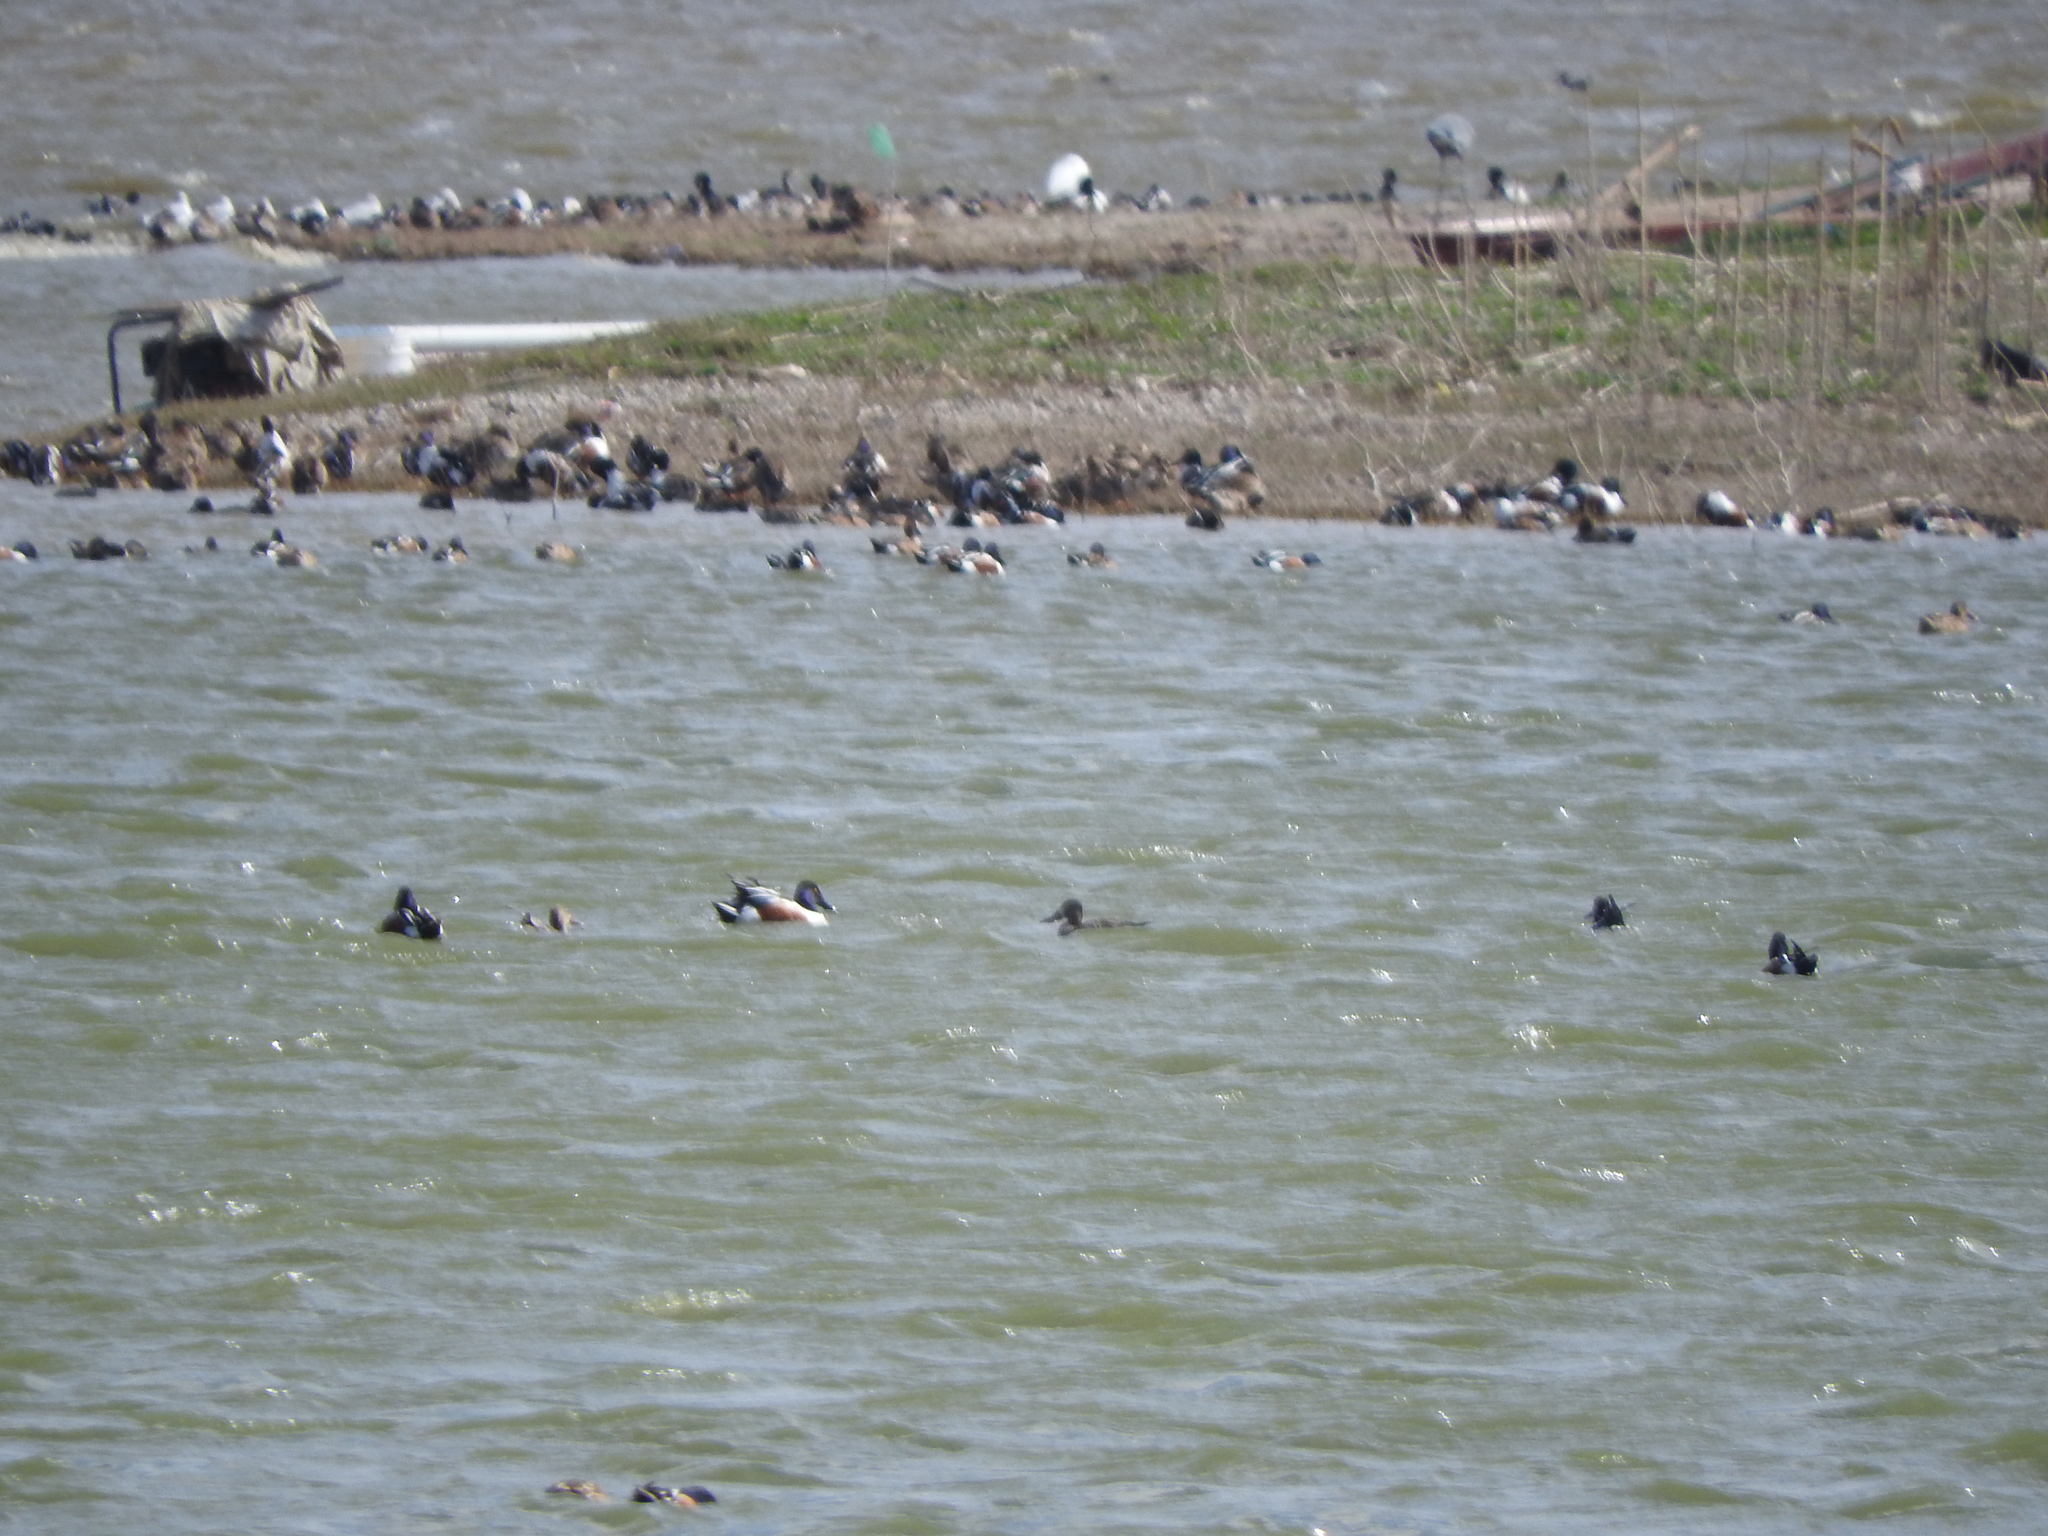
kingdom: Animalia
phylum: Chordata
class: Aves
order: Anseriformes
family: Anatidae
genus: Spatula
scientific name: Spatula clypeata
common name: Northern shoveler
